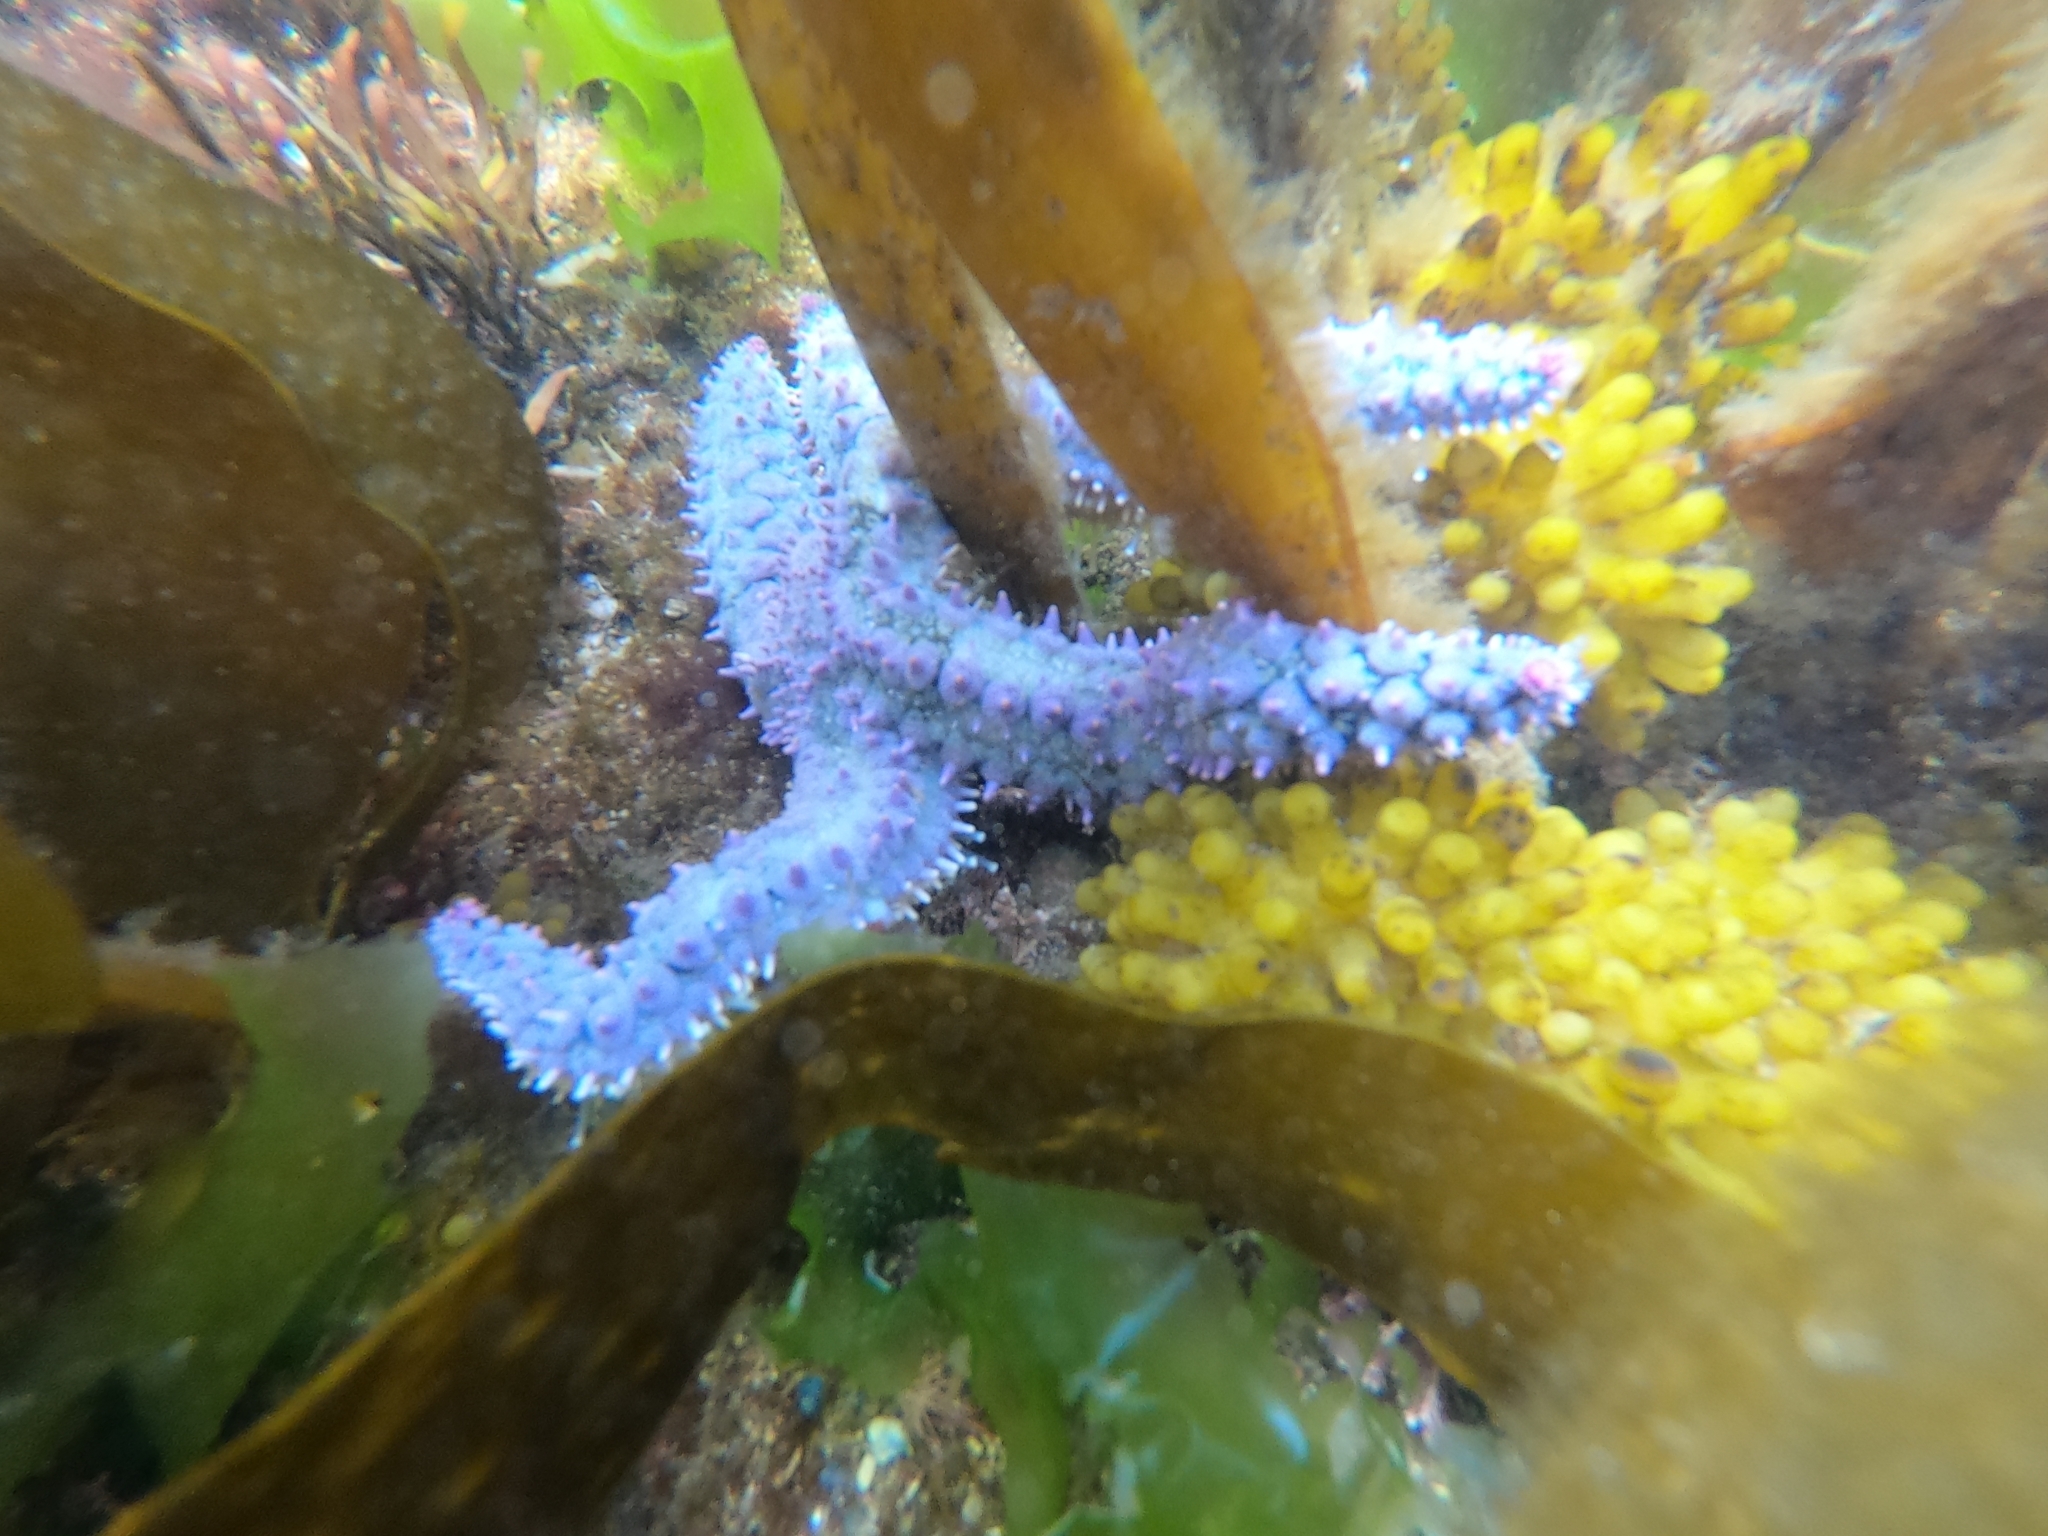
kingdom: Animalia
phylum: Echinodermata
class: Asteroidea
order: Forcipulatida
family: Asteriidae
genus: Marthasterias
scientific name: Marthasterias glacialis
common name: Spiny starfish
